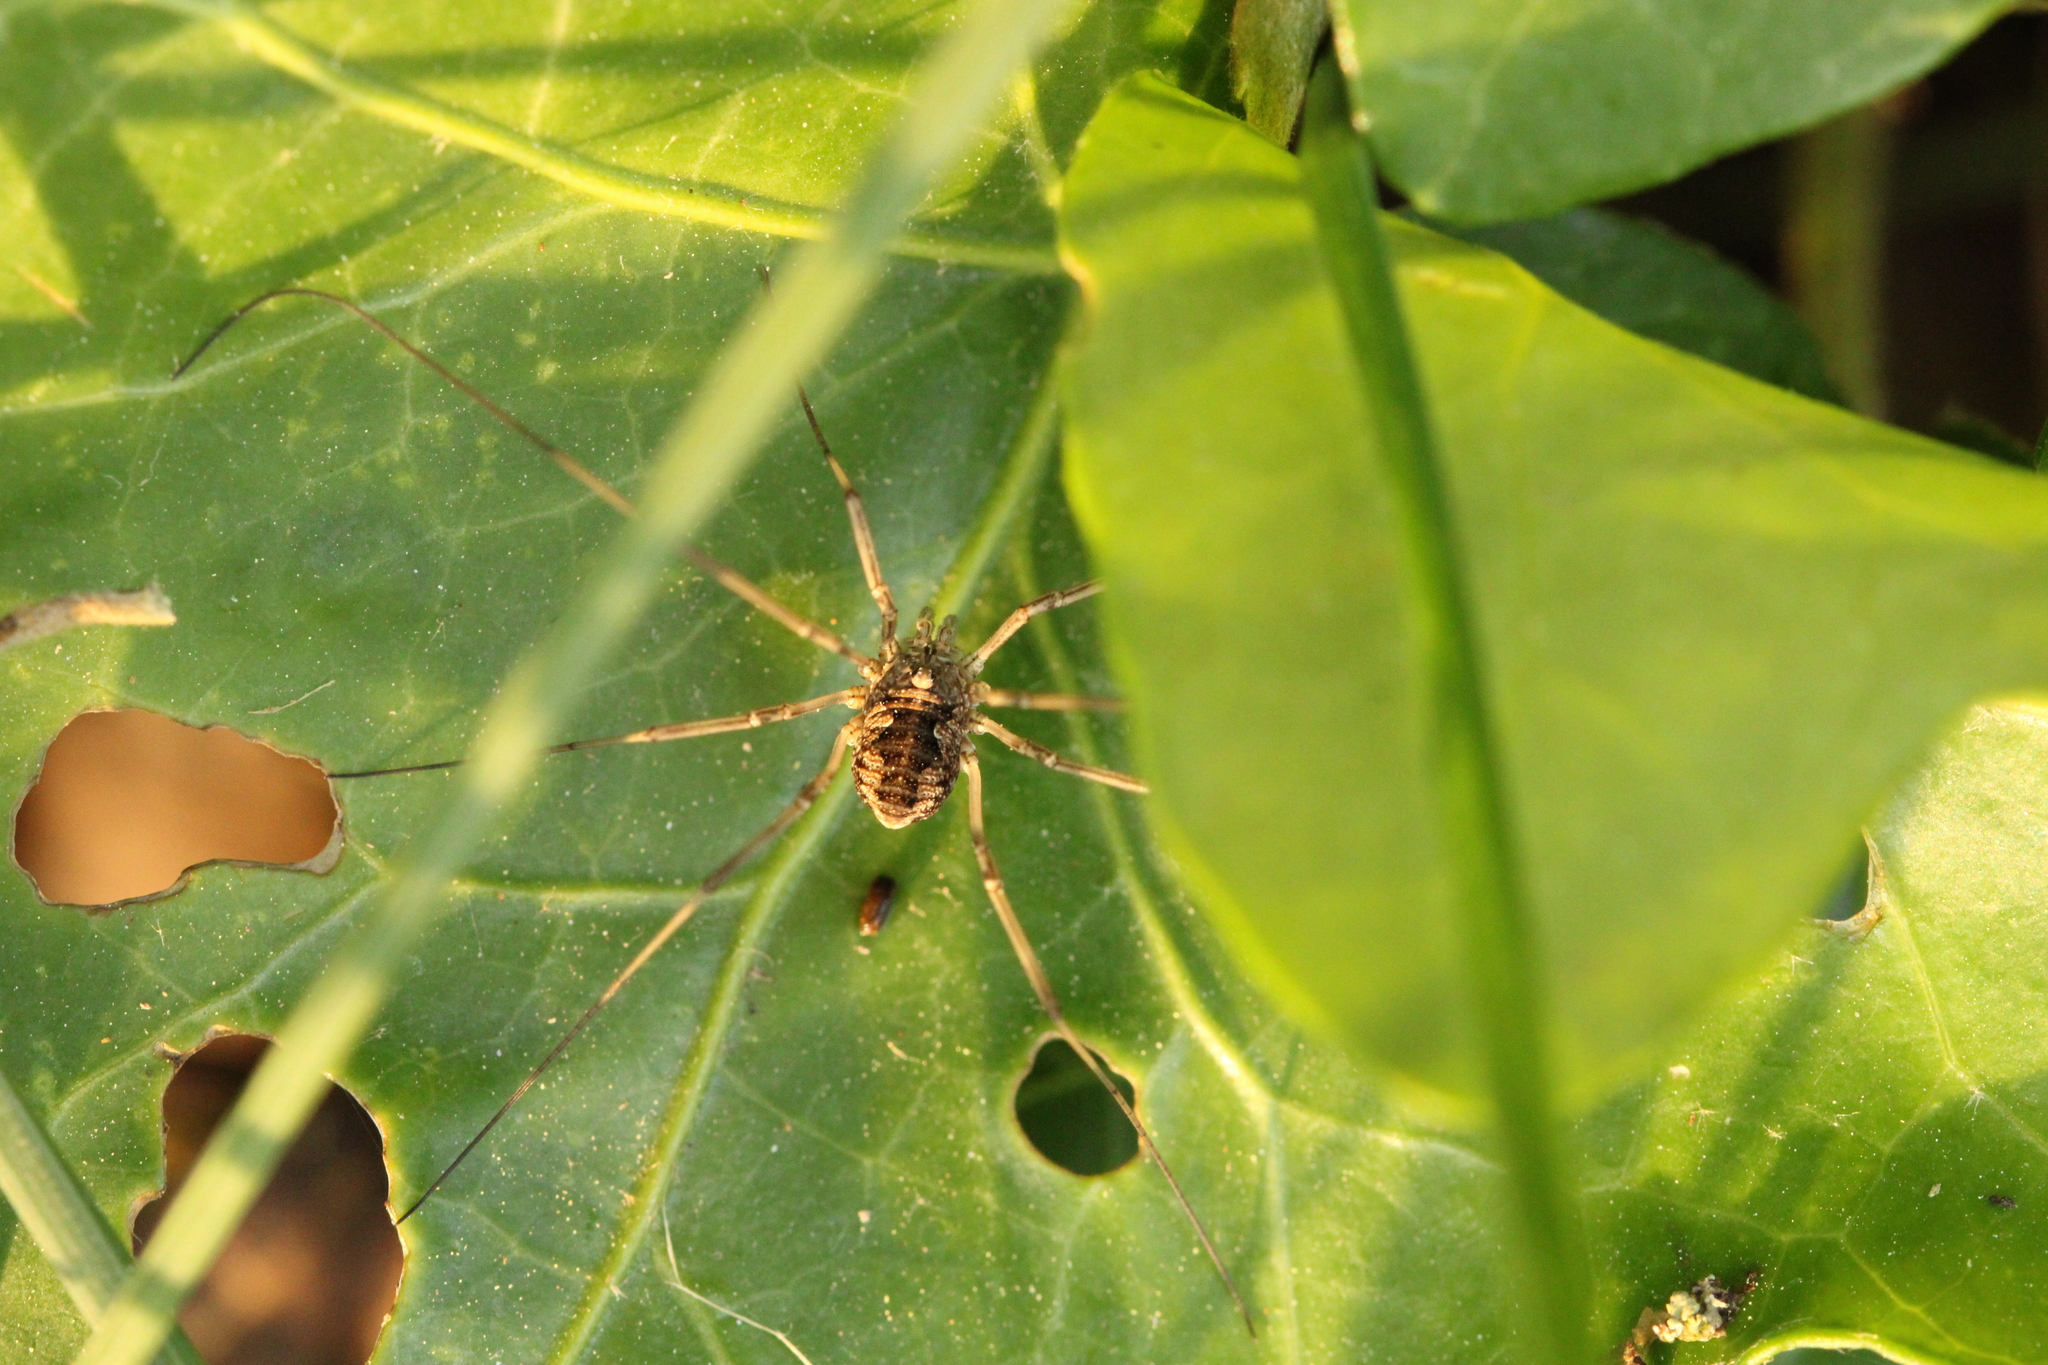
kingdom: Animalia
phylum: Arthropoda
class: Arachnida
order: Opiliones
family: Phalangiidae
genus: Phalangium
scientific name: Phalangium opilio
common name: Daddy longleg
